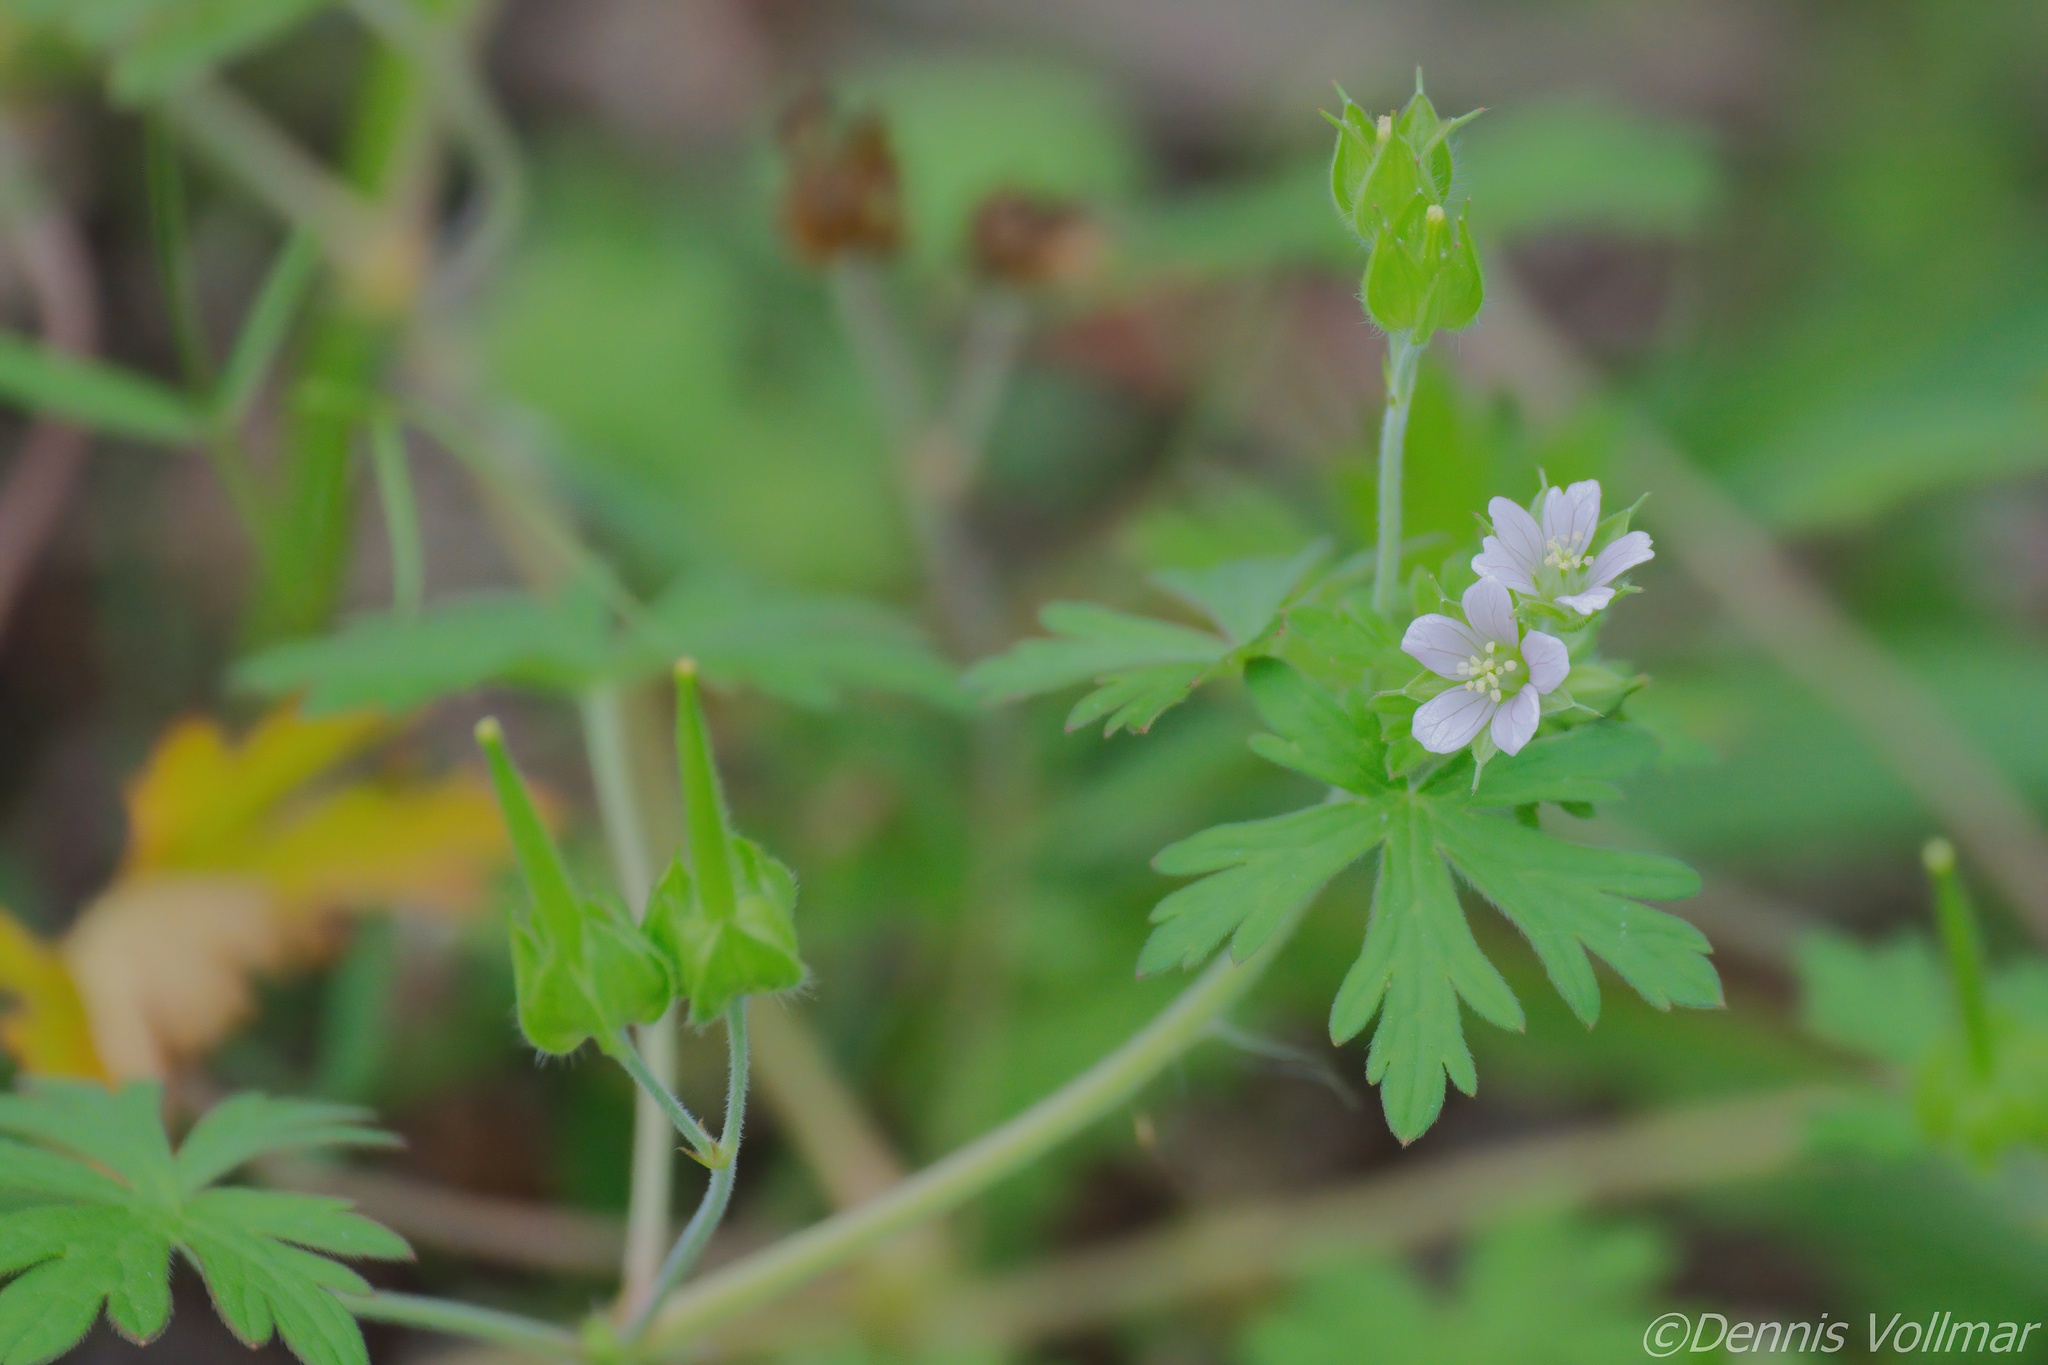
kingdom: Plantae
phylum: Tracheophyta
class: Magnoliopsida
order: Geraniales
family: Geraniaceae
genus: Geranium
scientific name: Geranium carolinianum
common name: Carolina crane's-bill
